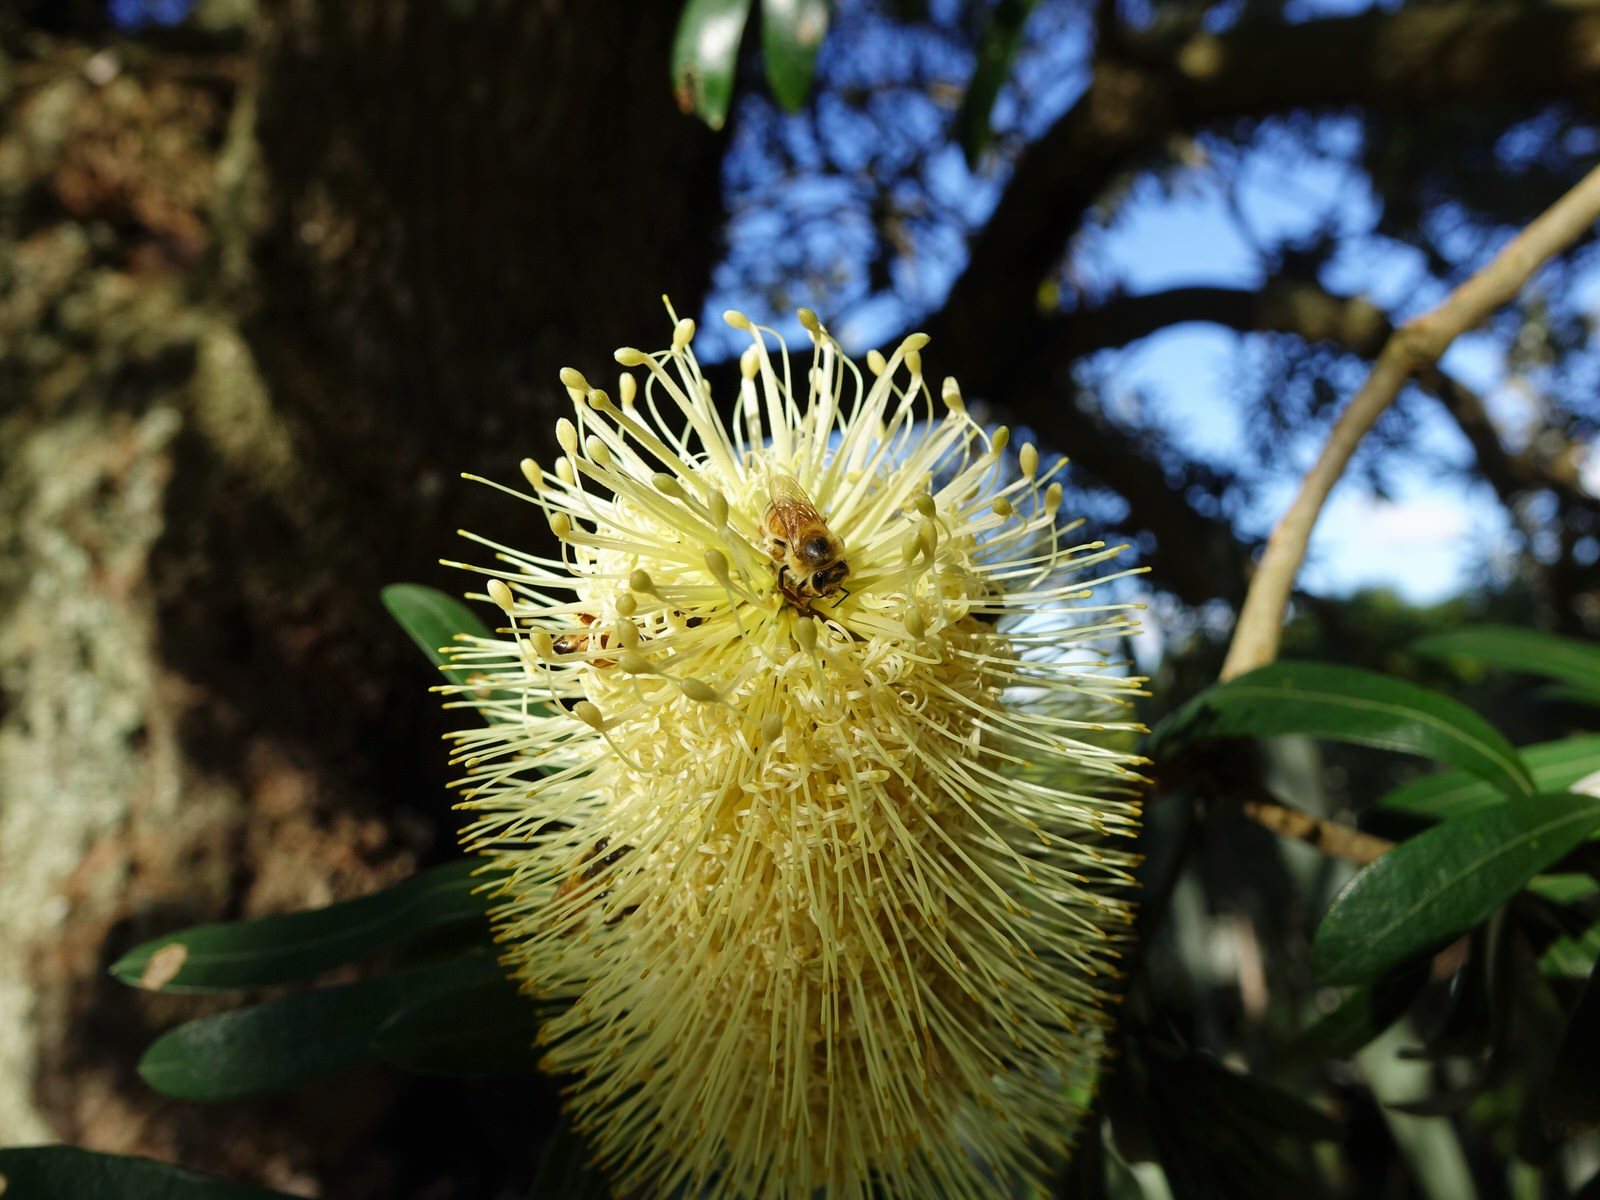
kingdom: Animalia
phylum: Arthropoda
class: Insecta
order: Hymenoptera
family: Apidae
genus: Apis
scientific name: Apis mellifera
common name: Honey bee
